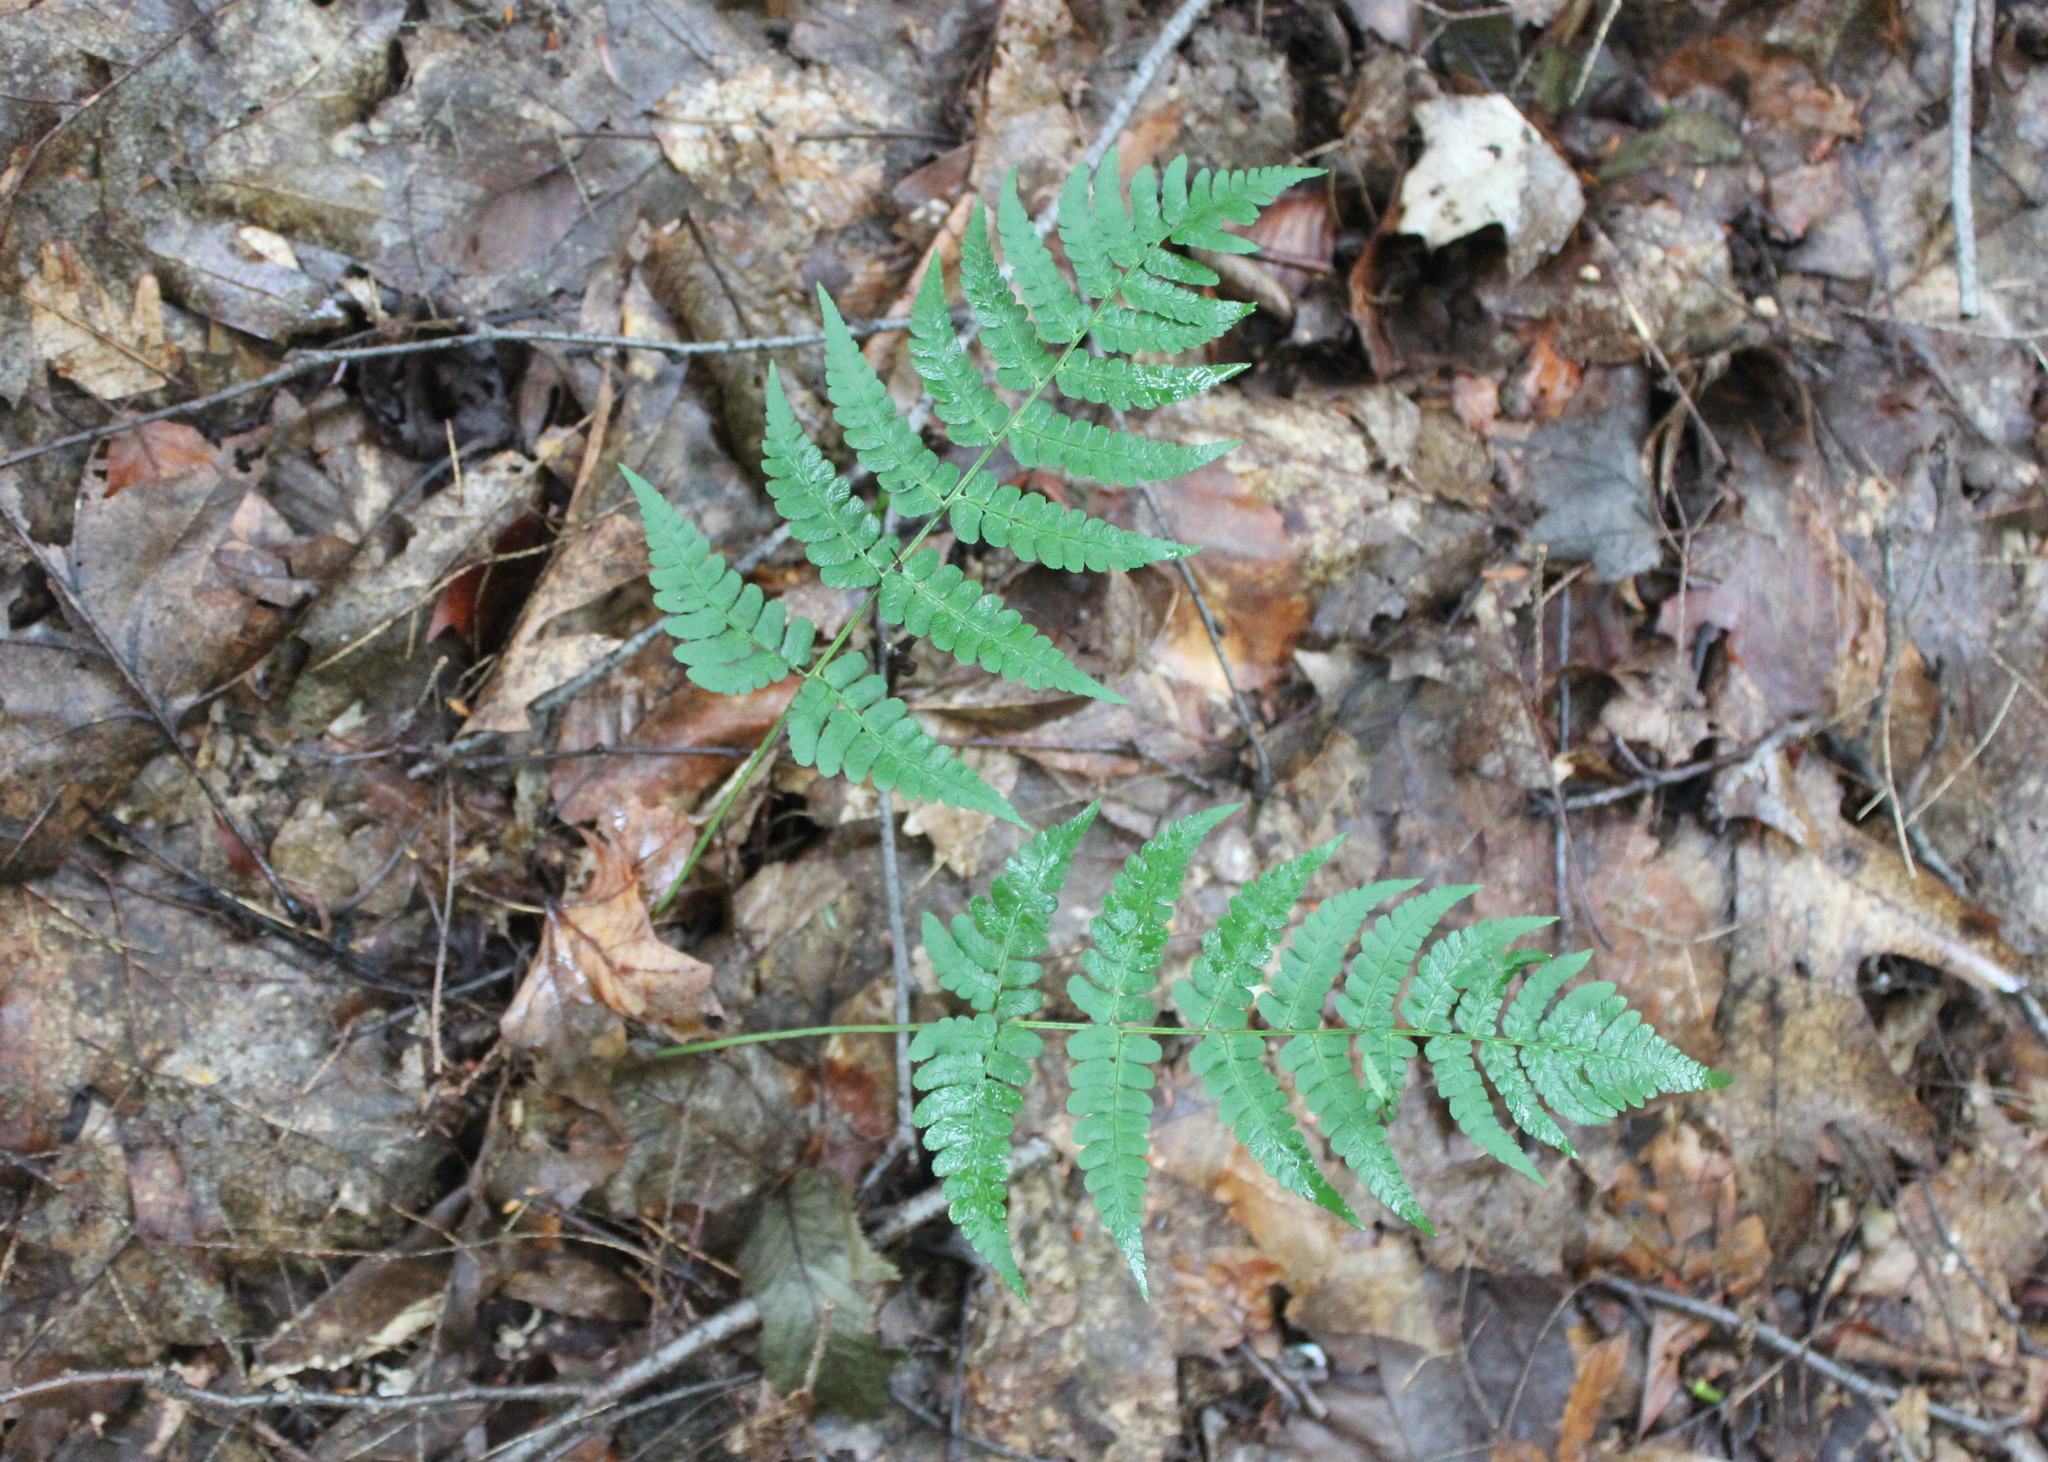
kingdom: Plantae
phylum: Tracheophyta
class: Polypodiopsida
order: Polypodiales
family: Dryopteridaceae
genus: Dryopteris
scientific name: Dryopteris marginalis
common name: Marginal wood fern
